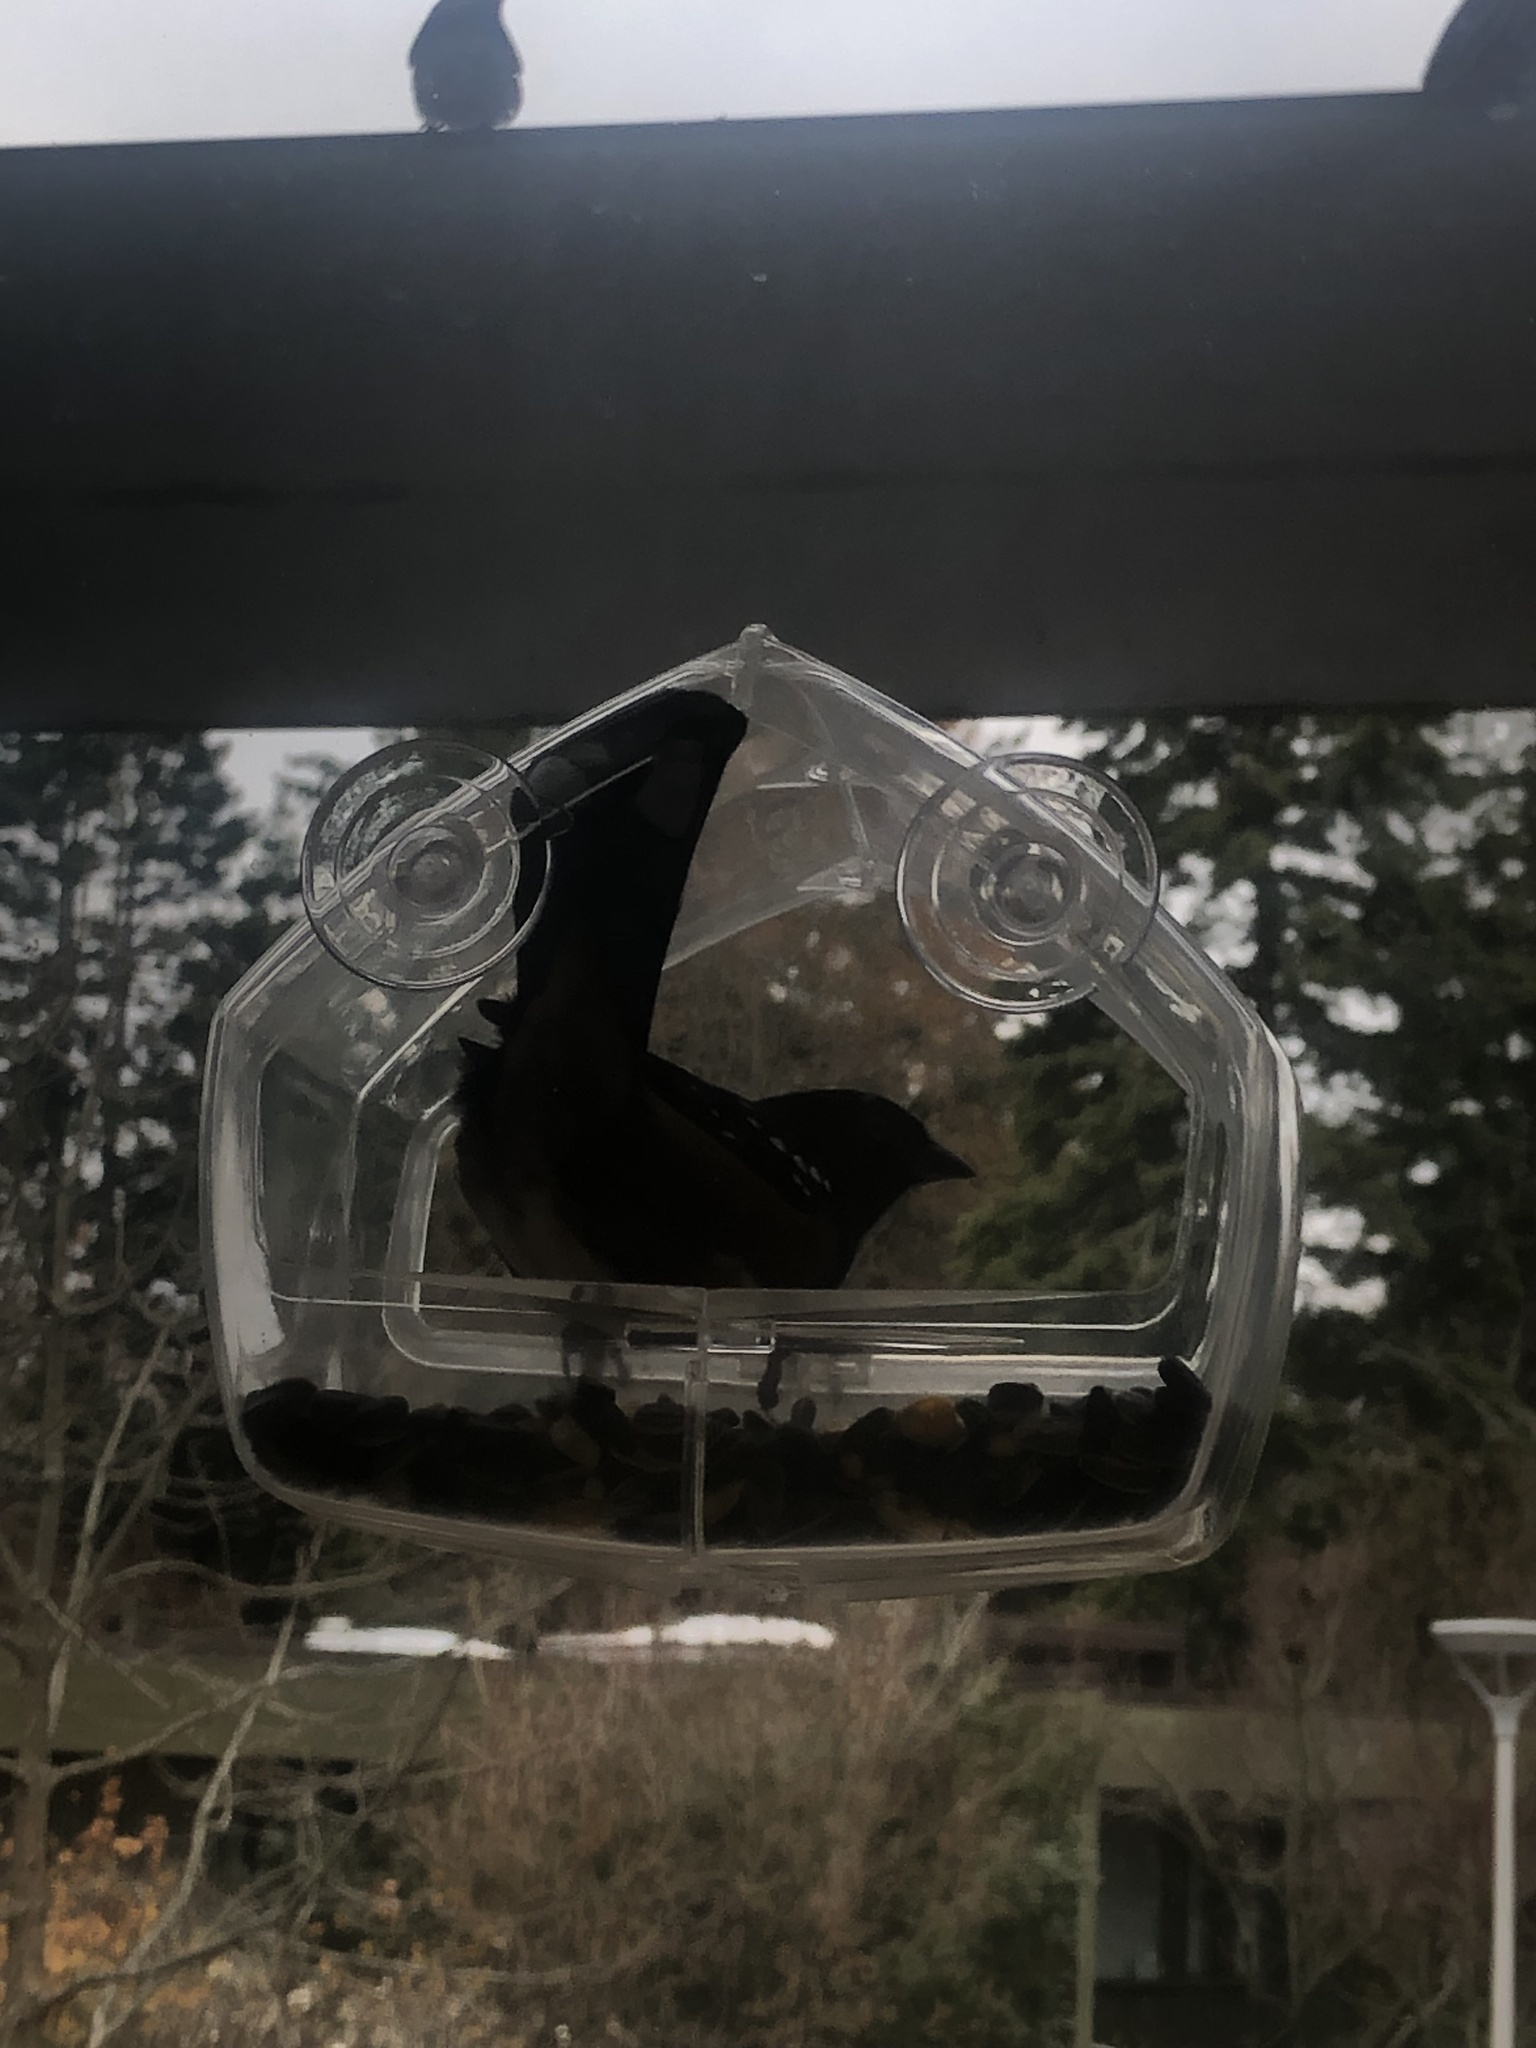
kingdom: Animalia
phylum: Chordata
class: Aves
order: Passeriformes
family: Passerellidae
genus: Pipilo
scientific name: Pipilo maculatus
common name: Spotted towhee
